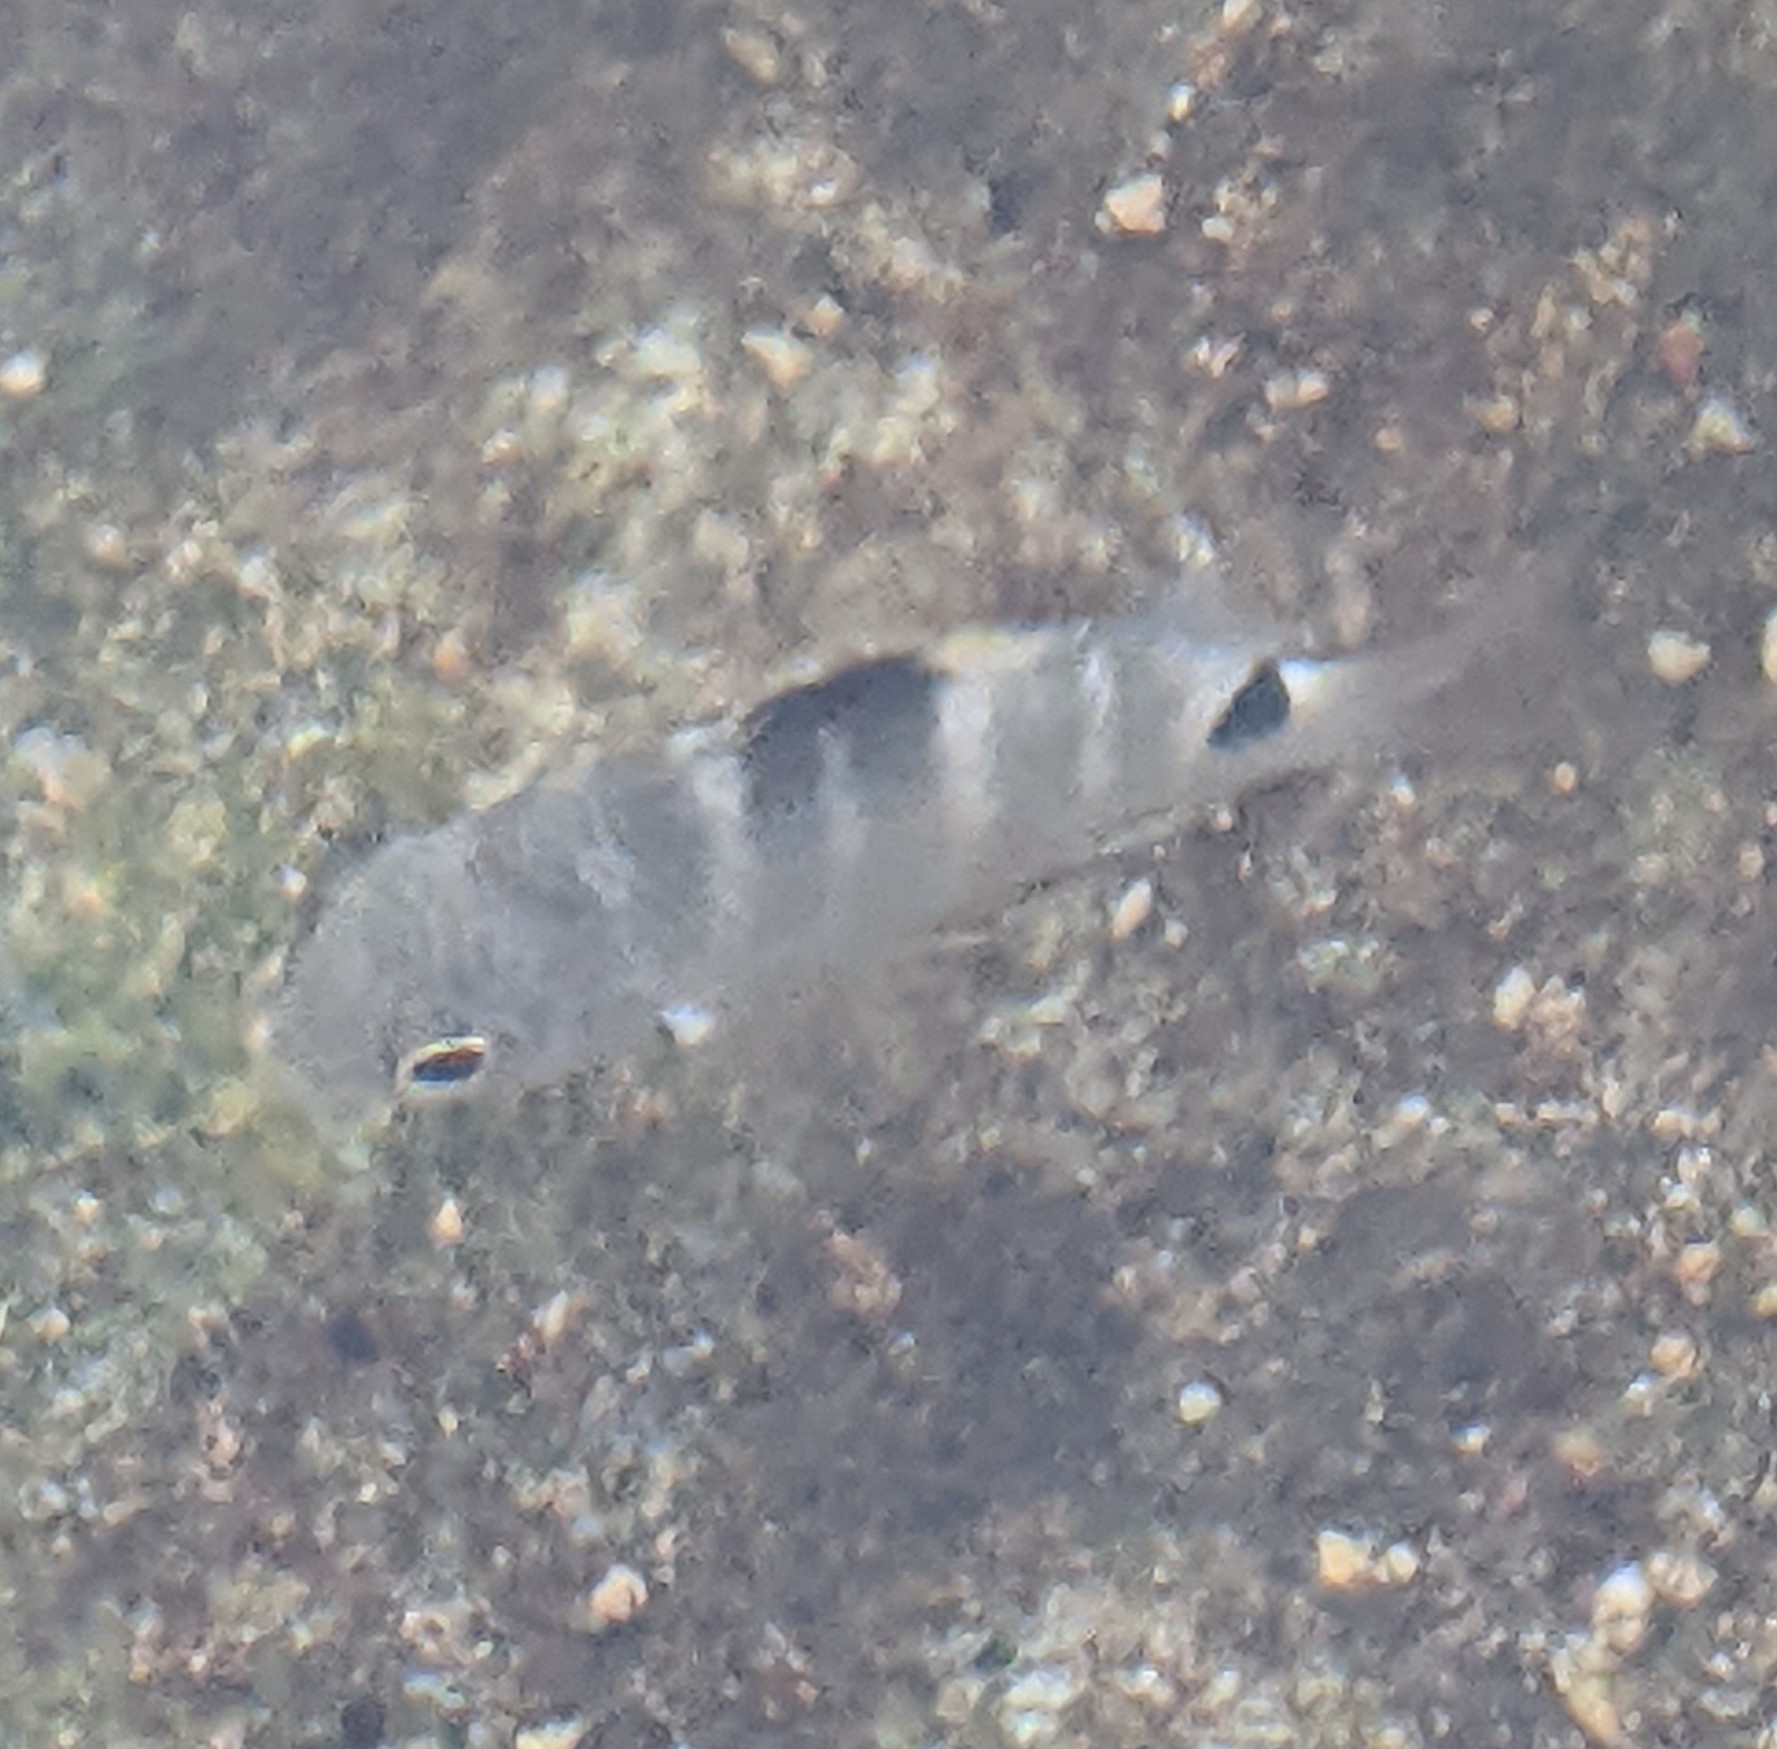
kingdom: Animalia
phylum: Chordata
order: Perciformes
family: Pomacentridae
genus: Abudefduf
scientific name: Abudefduf sordidus
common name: Blackspot sergeant
